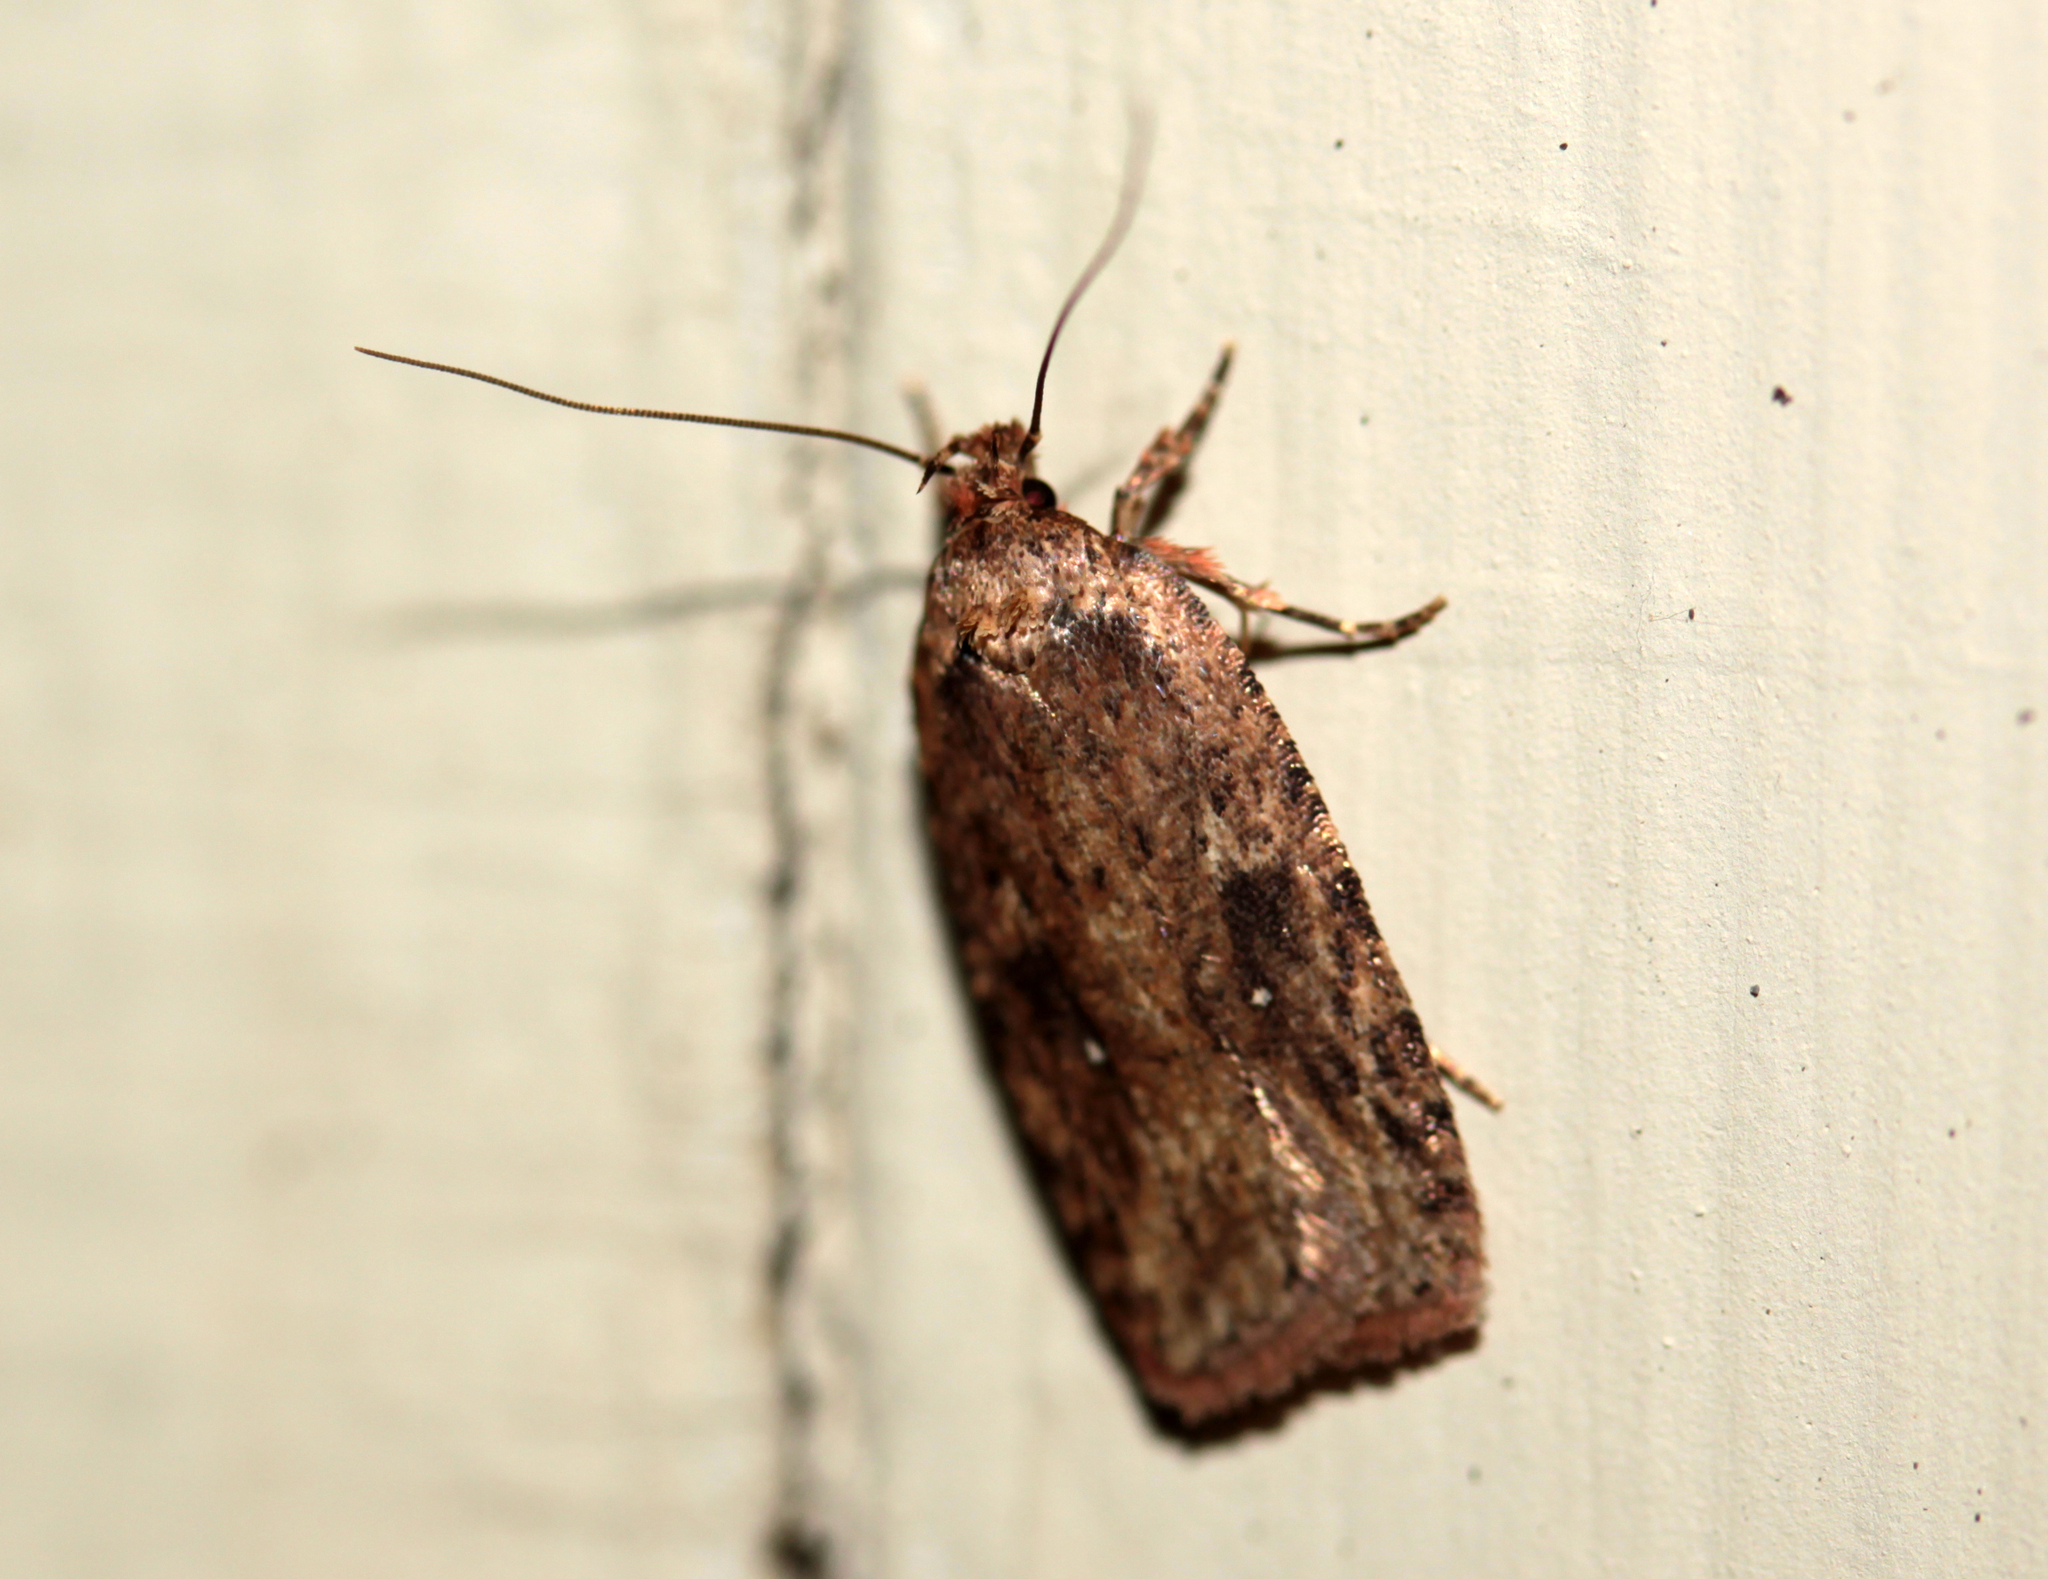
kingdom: Animalia
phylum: Arthropoda
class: Insecta
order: Lepidoptera
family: Depressariidae
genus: Agonopterix
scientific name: Agonopterix pulvipennella
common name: Goldenrod leafffolder
